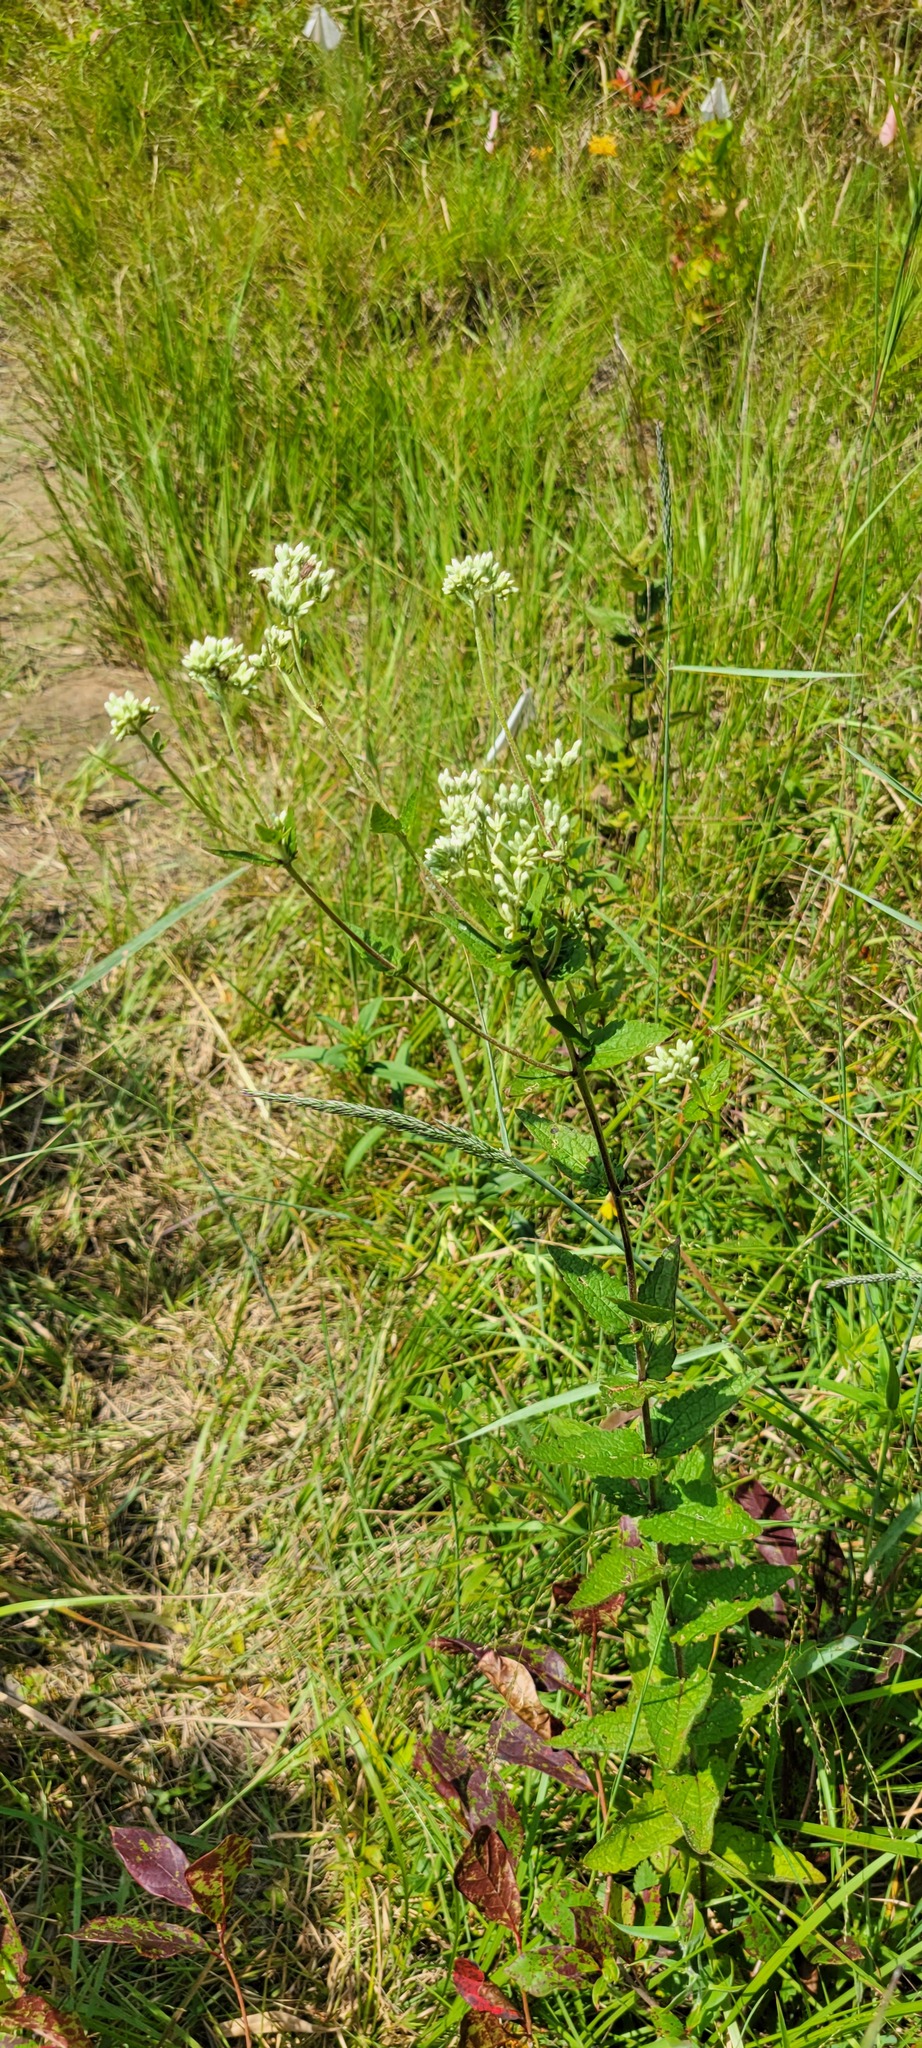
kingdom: Plantae
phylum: Tracheophyta
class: Magnoliopsida
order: Asterales
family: Asteraceae
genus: Eupatorium
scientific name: Eupatorium rotundifolium
